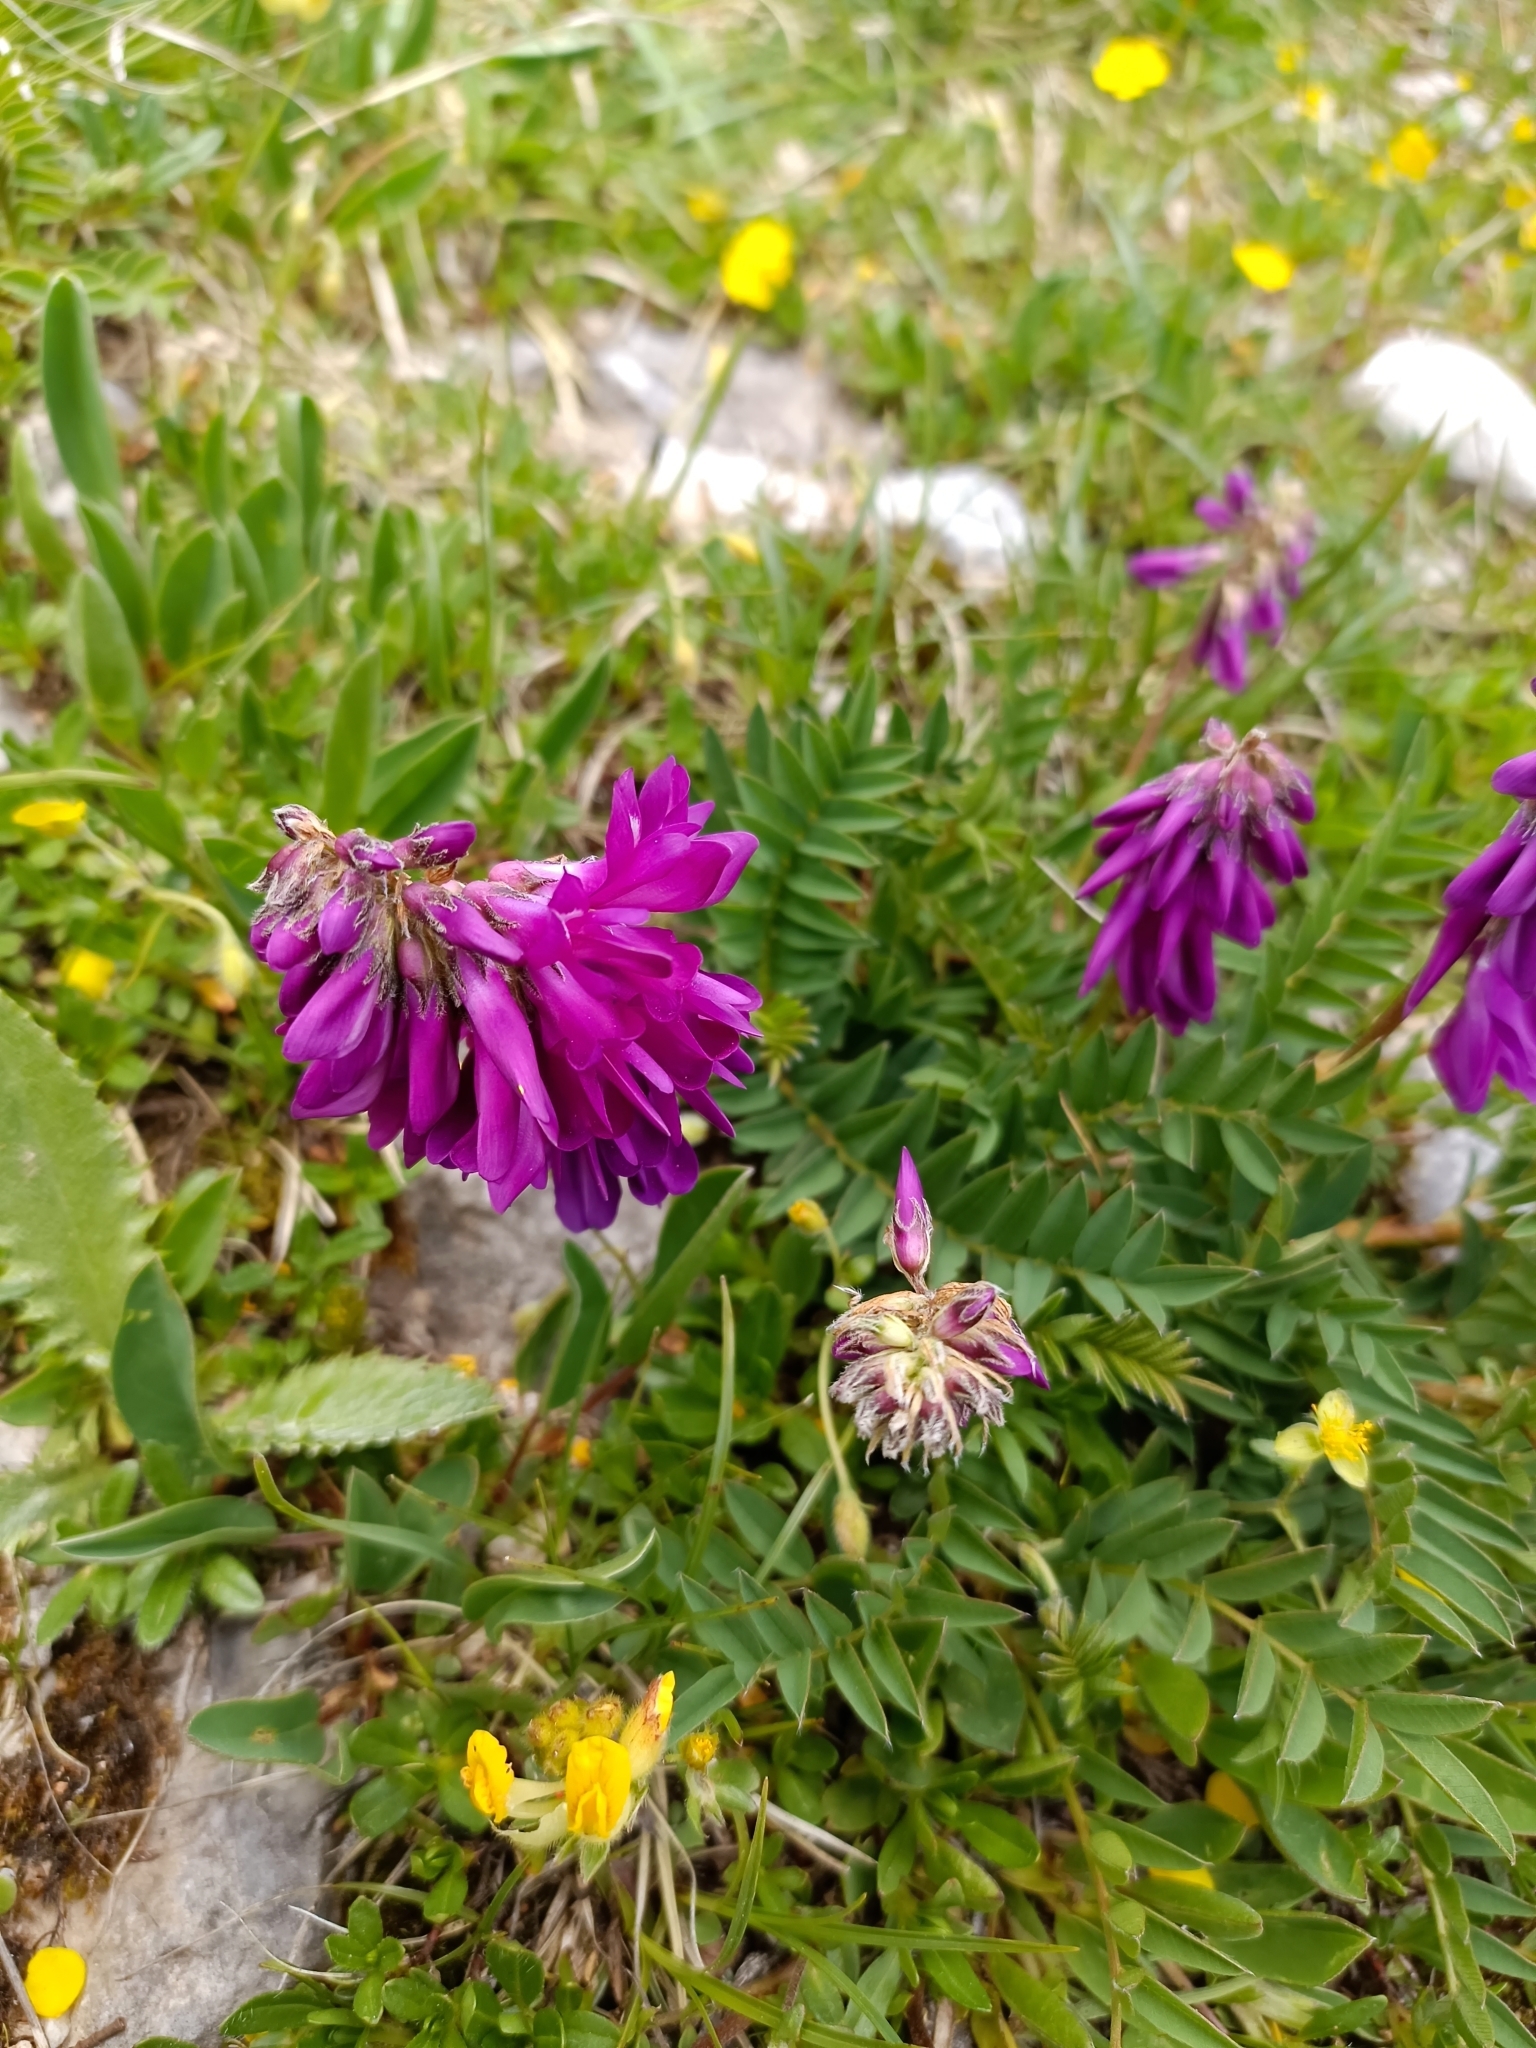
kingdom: Plantae
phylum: Tracheophyta
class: Magnoliopsida
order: Fabales
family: Fabaceae
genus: Hedysarum
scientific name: Hedysarum hedysaroides
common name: Alpine french-honeysuckle
